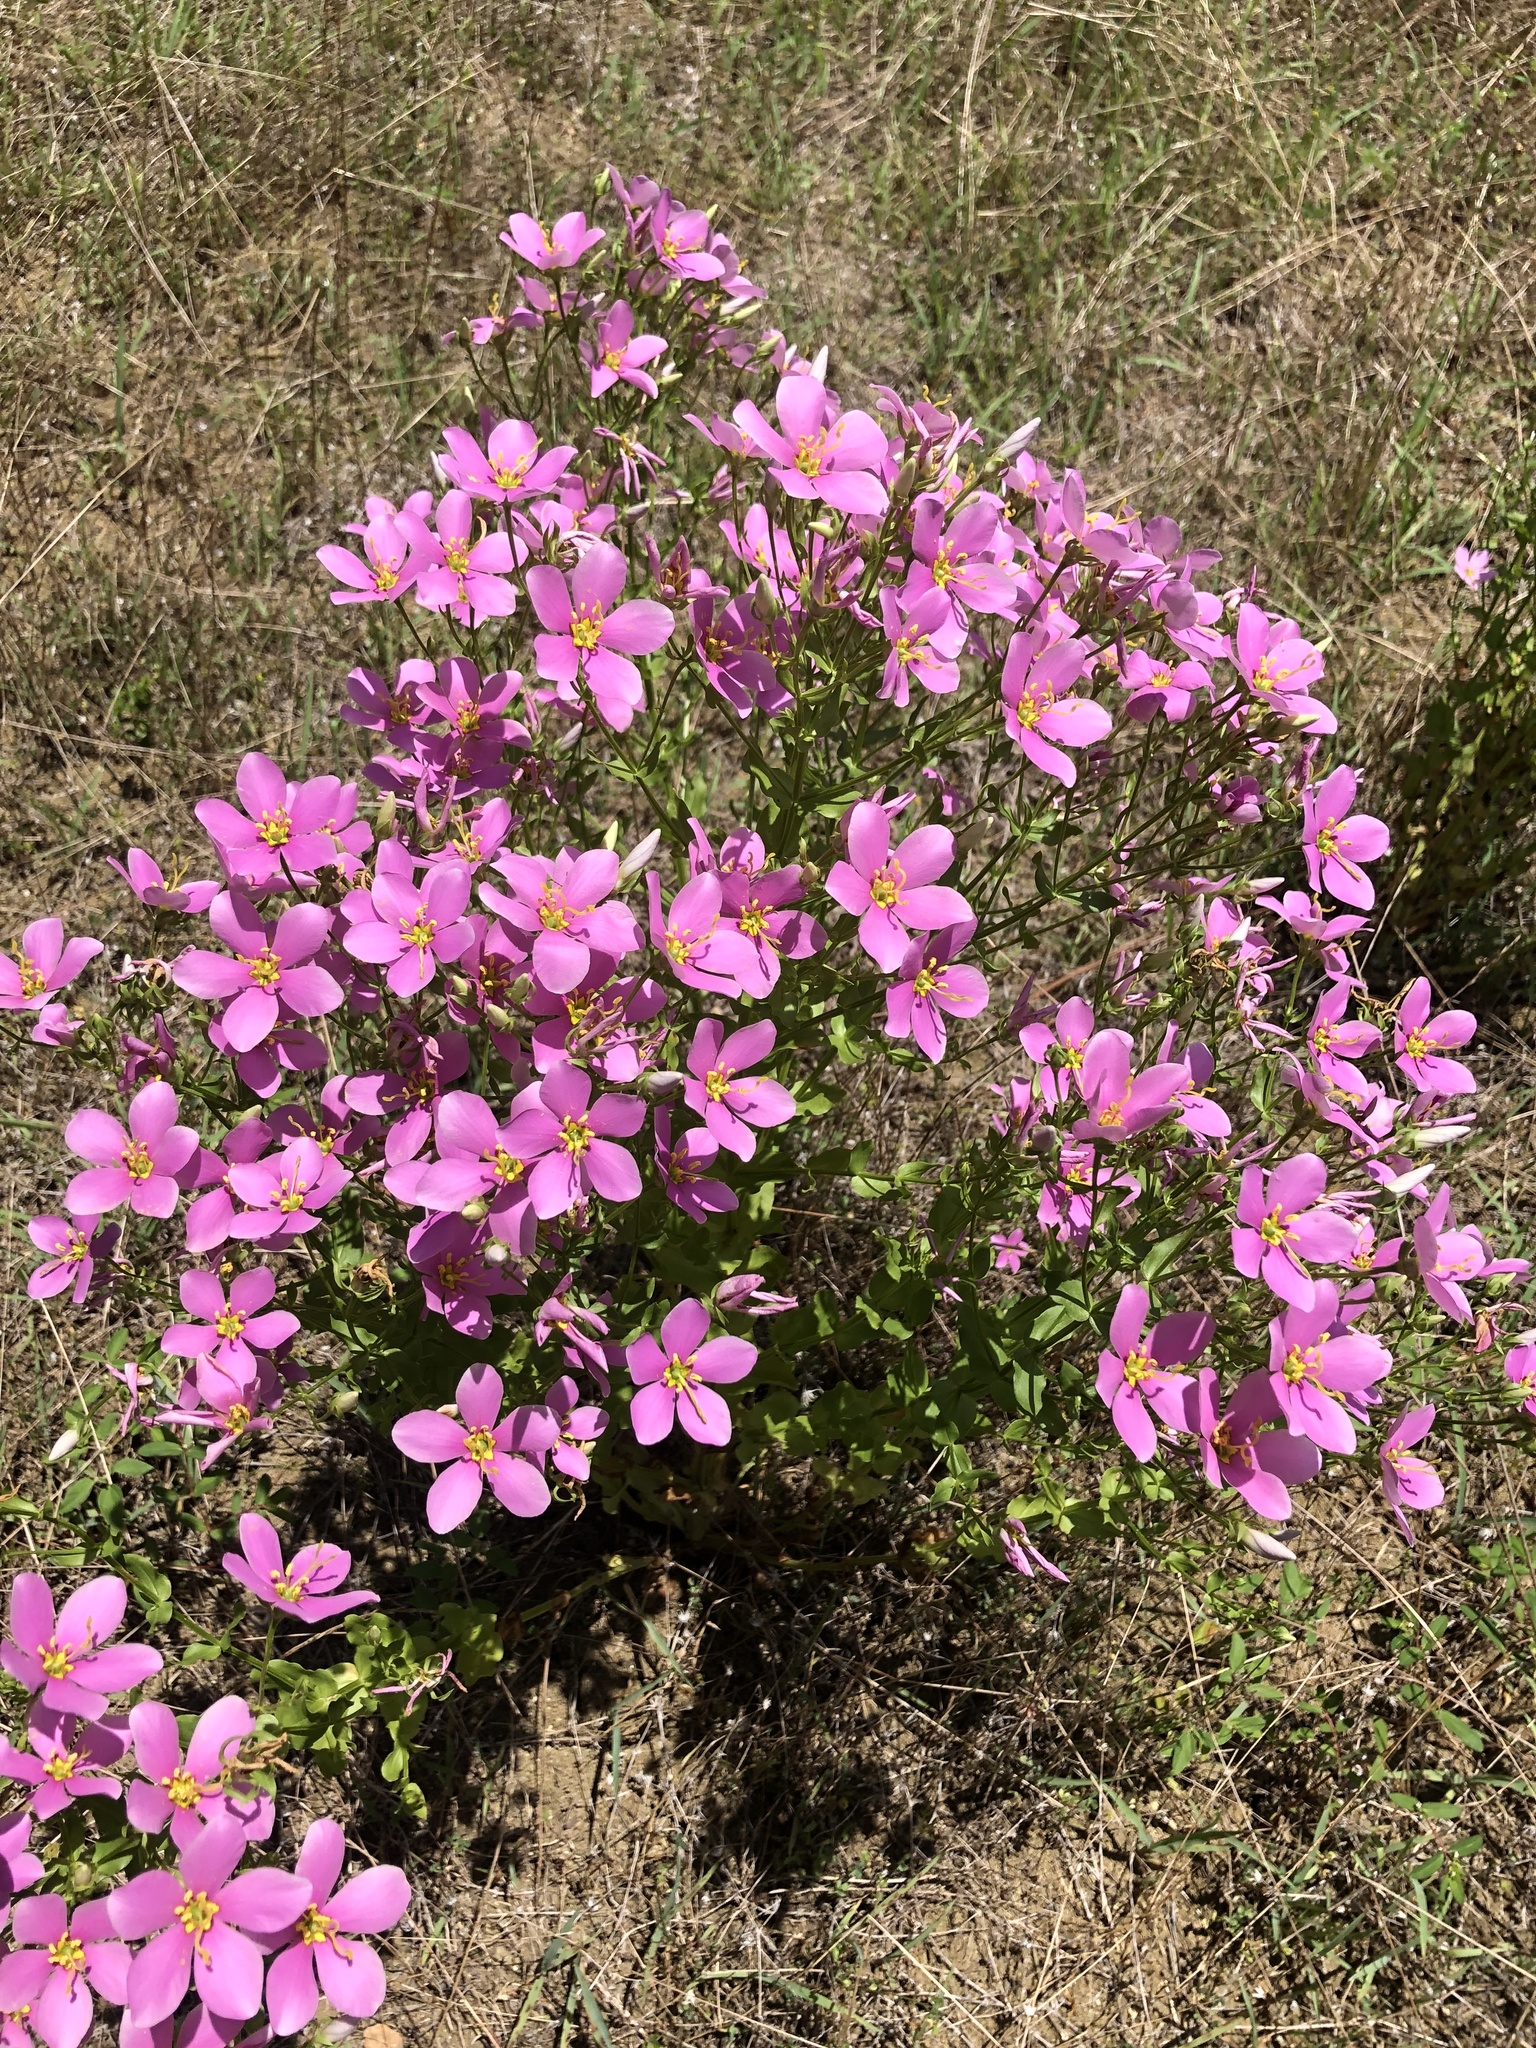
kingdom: Plantae
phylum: Tracheophyta
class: Magnoliopsida
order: Gentianales
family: Gentianaceae
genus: Sabatia
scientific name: Sabatia angularis
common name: Rose-pink
